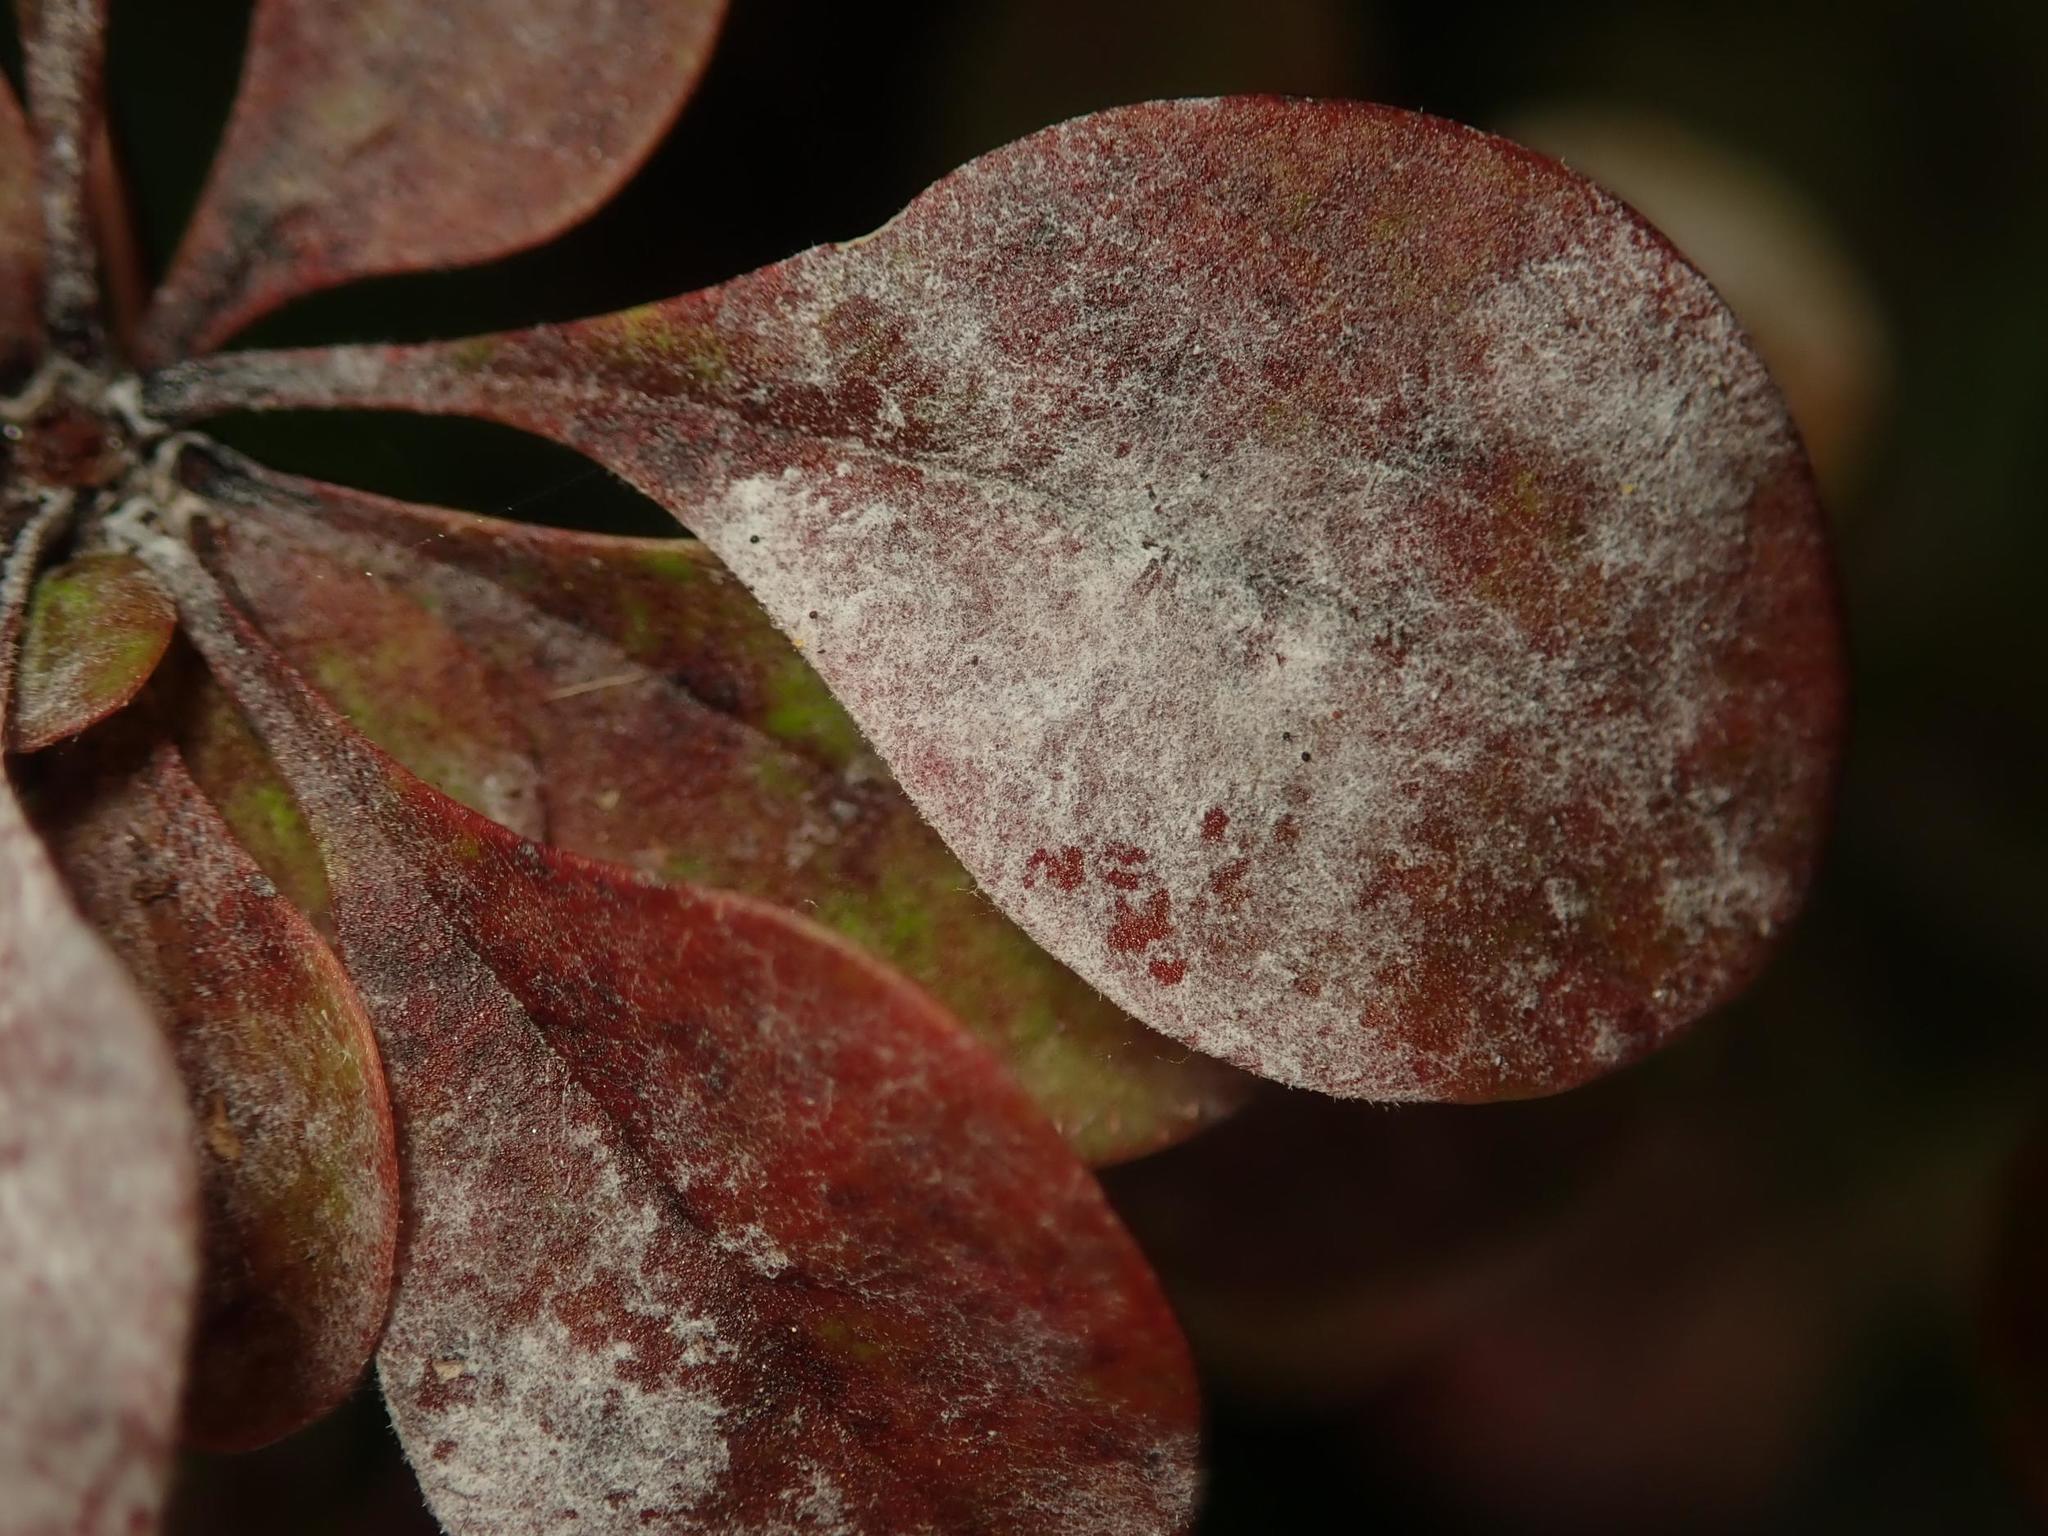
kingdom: Fungi
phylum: Ascomycota
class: Leotiomycetes
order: Helotiales
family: Erysiphaceae
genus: Erysiphe
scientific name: Erysiphe berberidis
